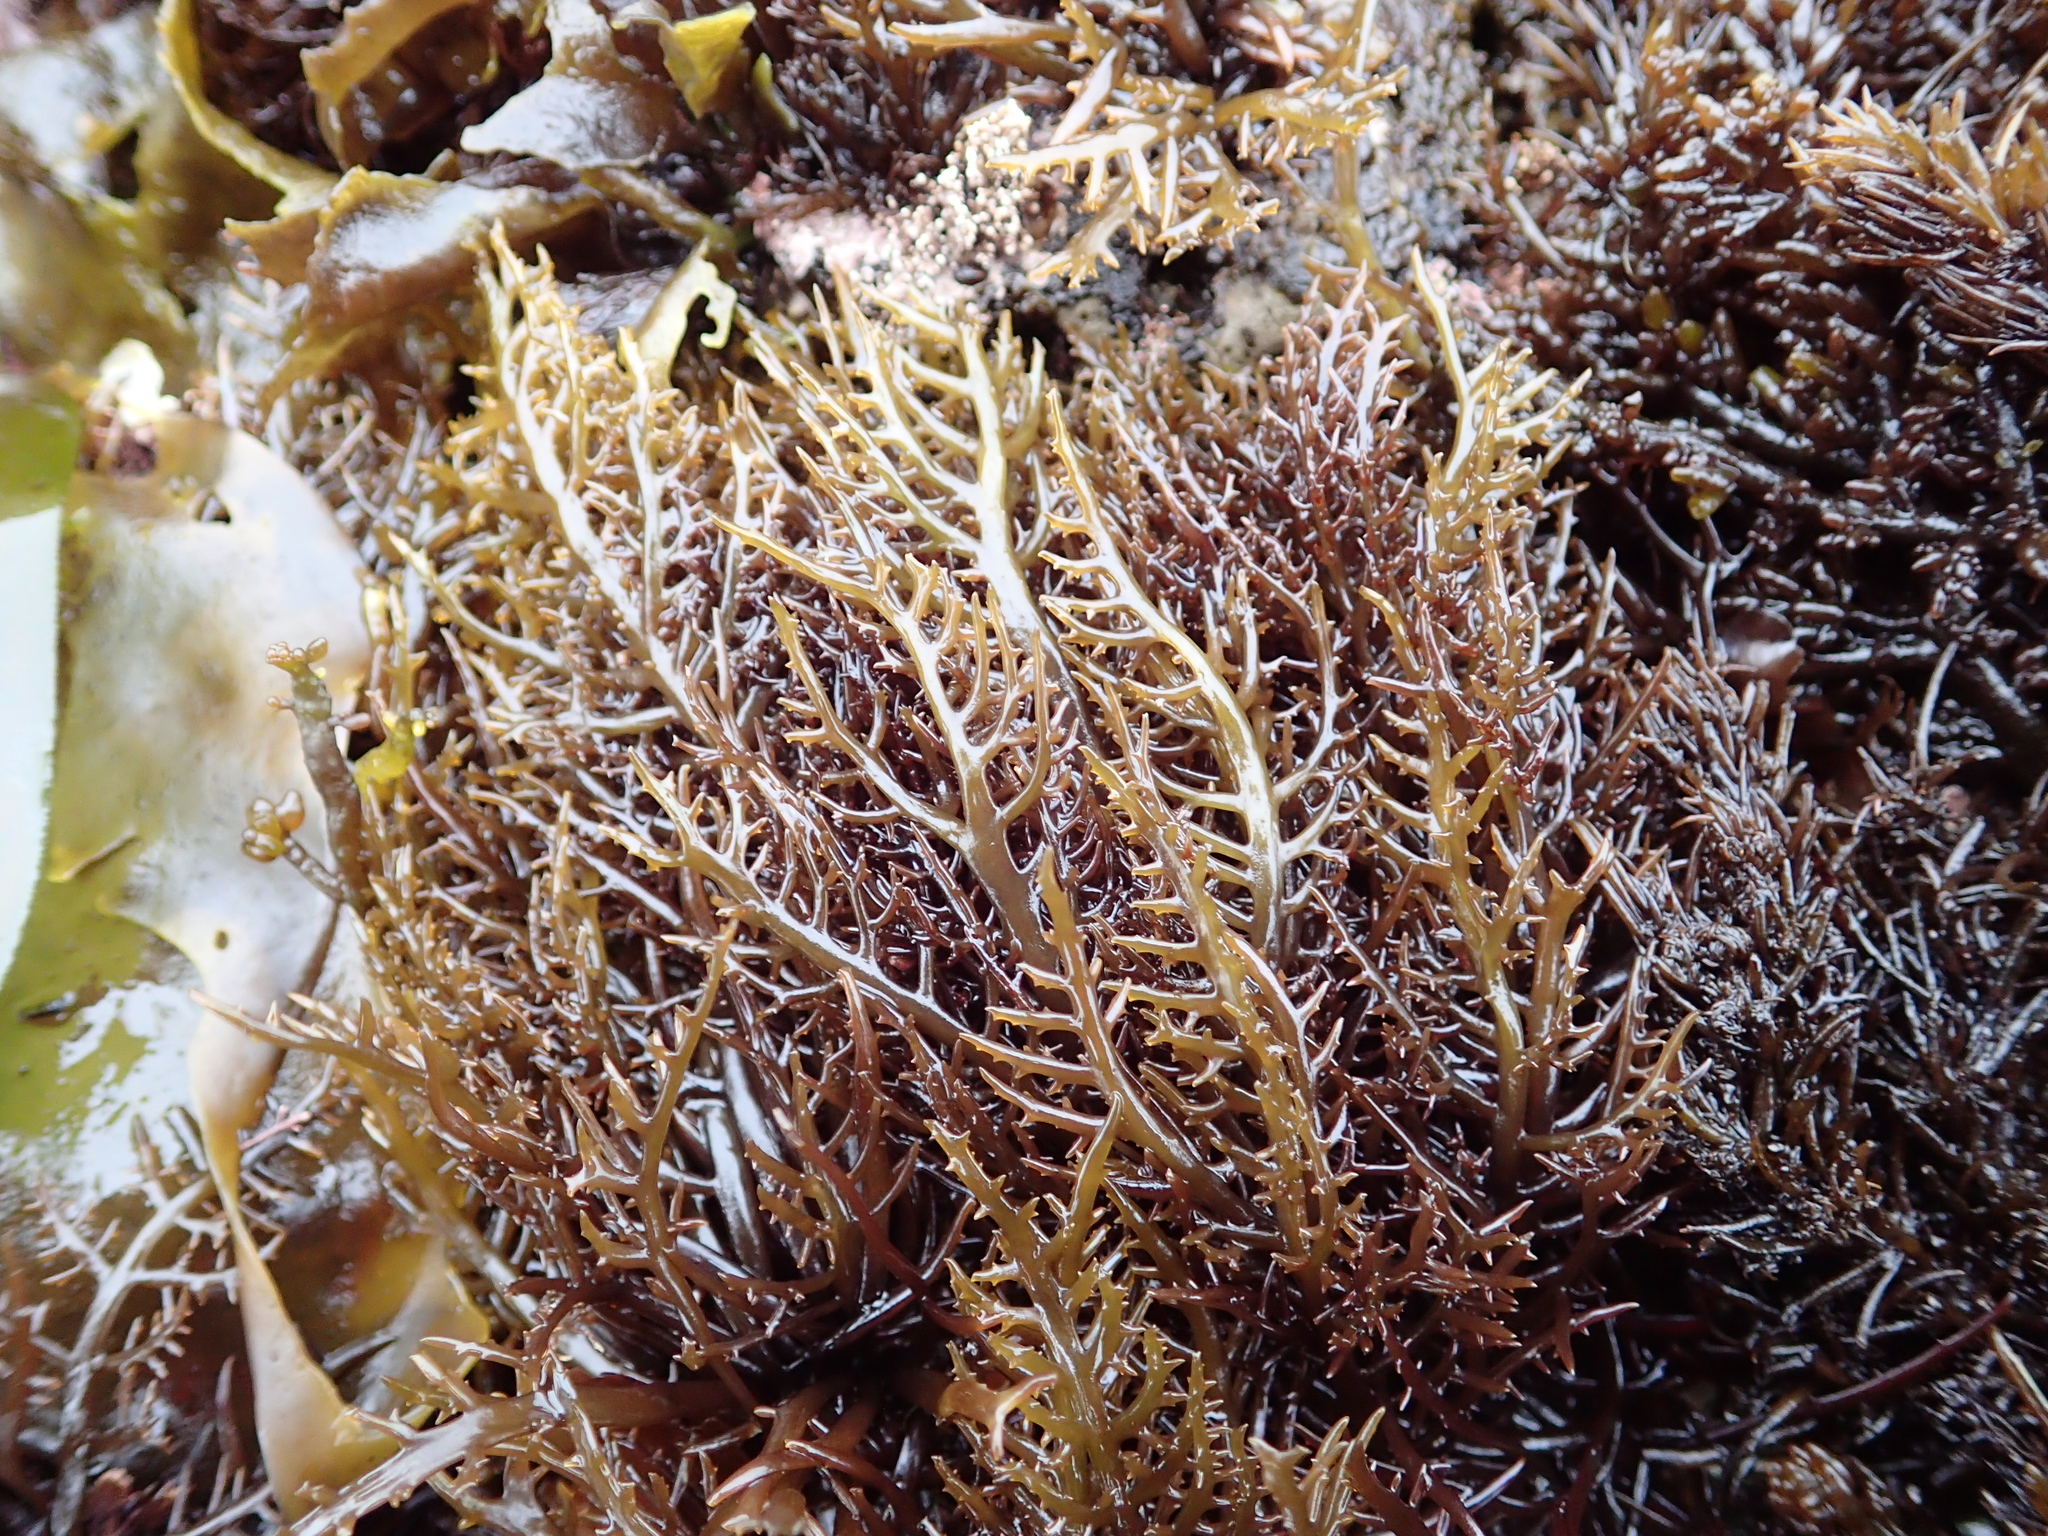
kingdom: Plantae
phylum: Rhodophyta
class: Florideophyceae
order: Gigartinales
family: Gigartinaceae
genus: Chondracanthus
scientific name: Chondracanthus canaliculatus
